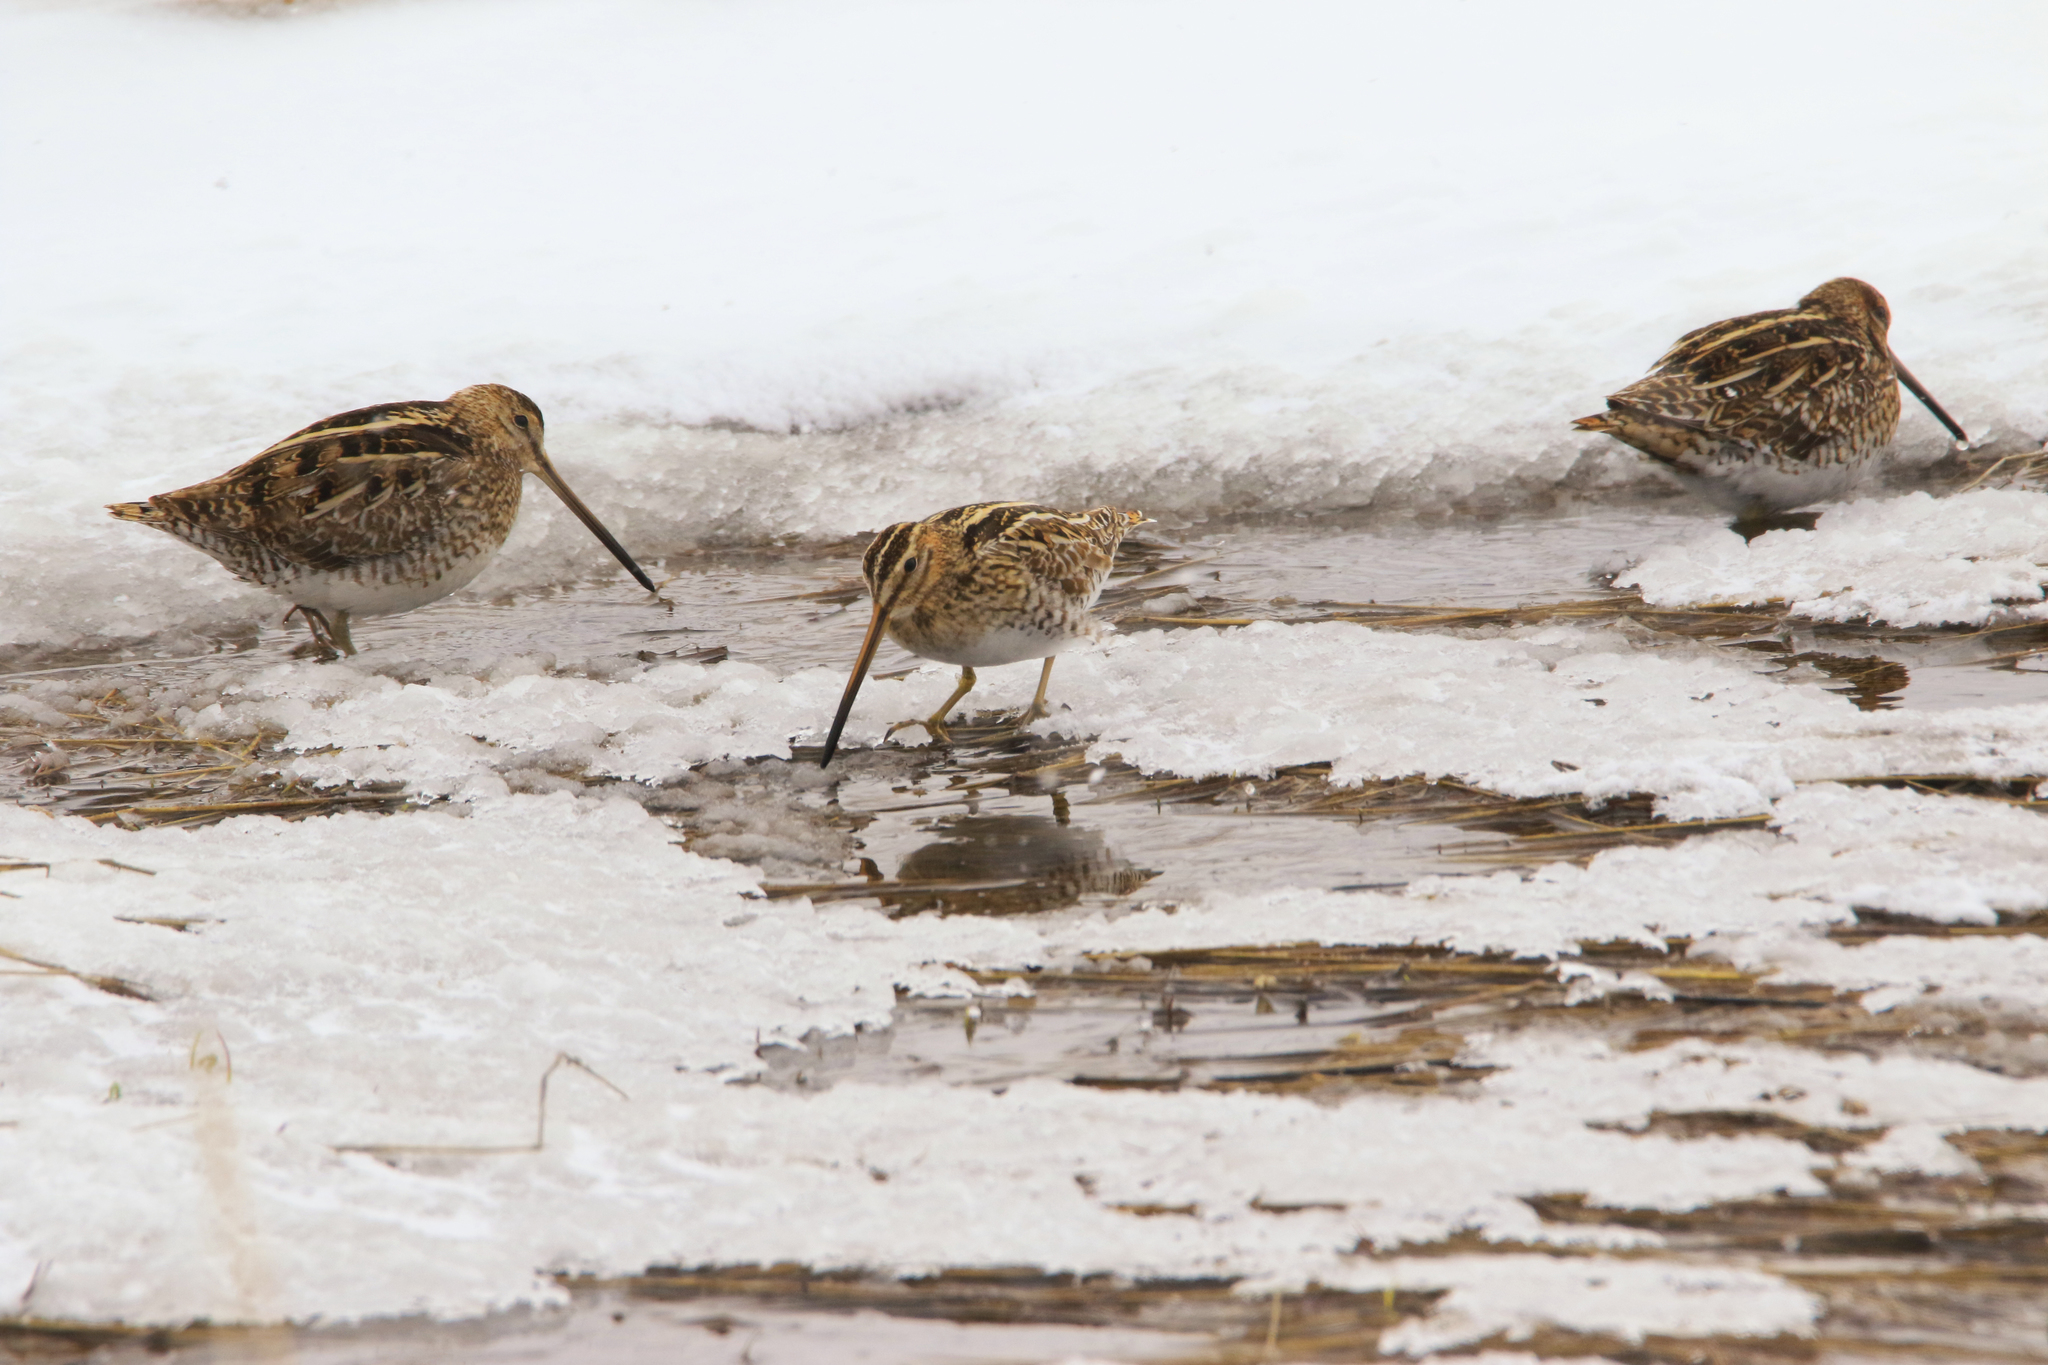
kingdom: Animalia
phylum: Chordata
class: Aves
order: Charadriiformes
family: Scolopacidae
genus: Gallinago
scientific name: Gallinago gallinago
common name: Common snipe
